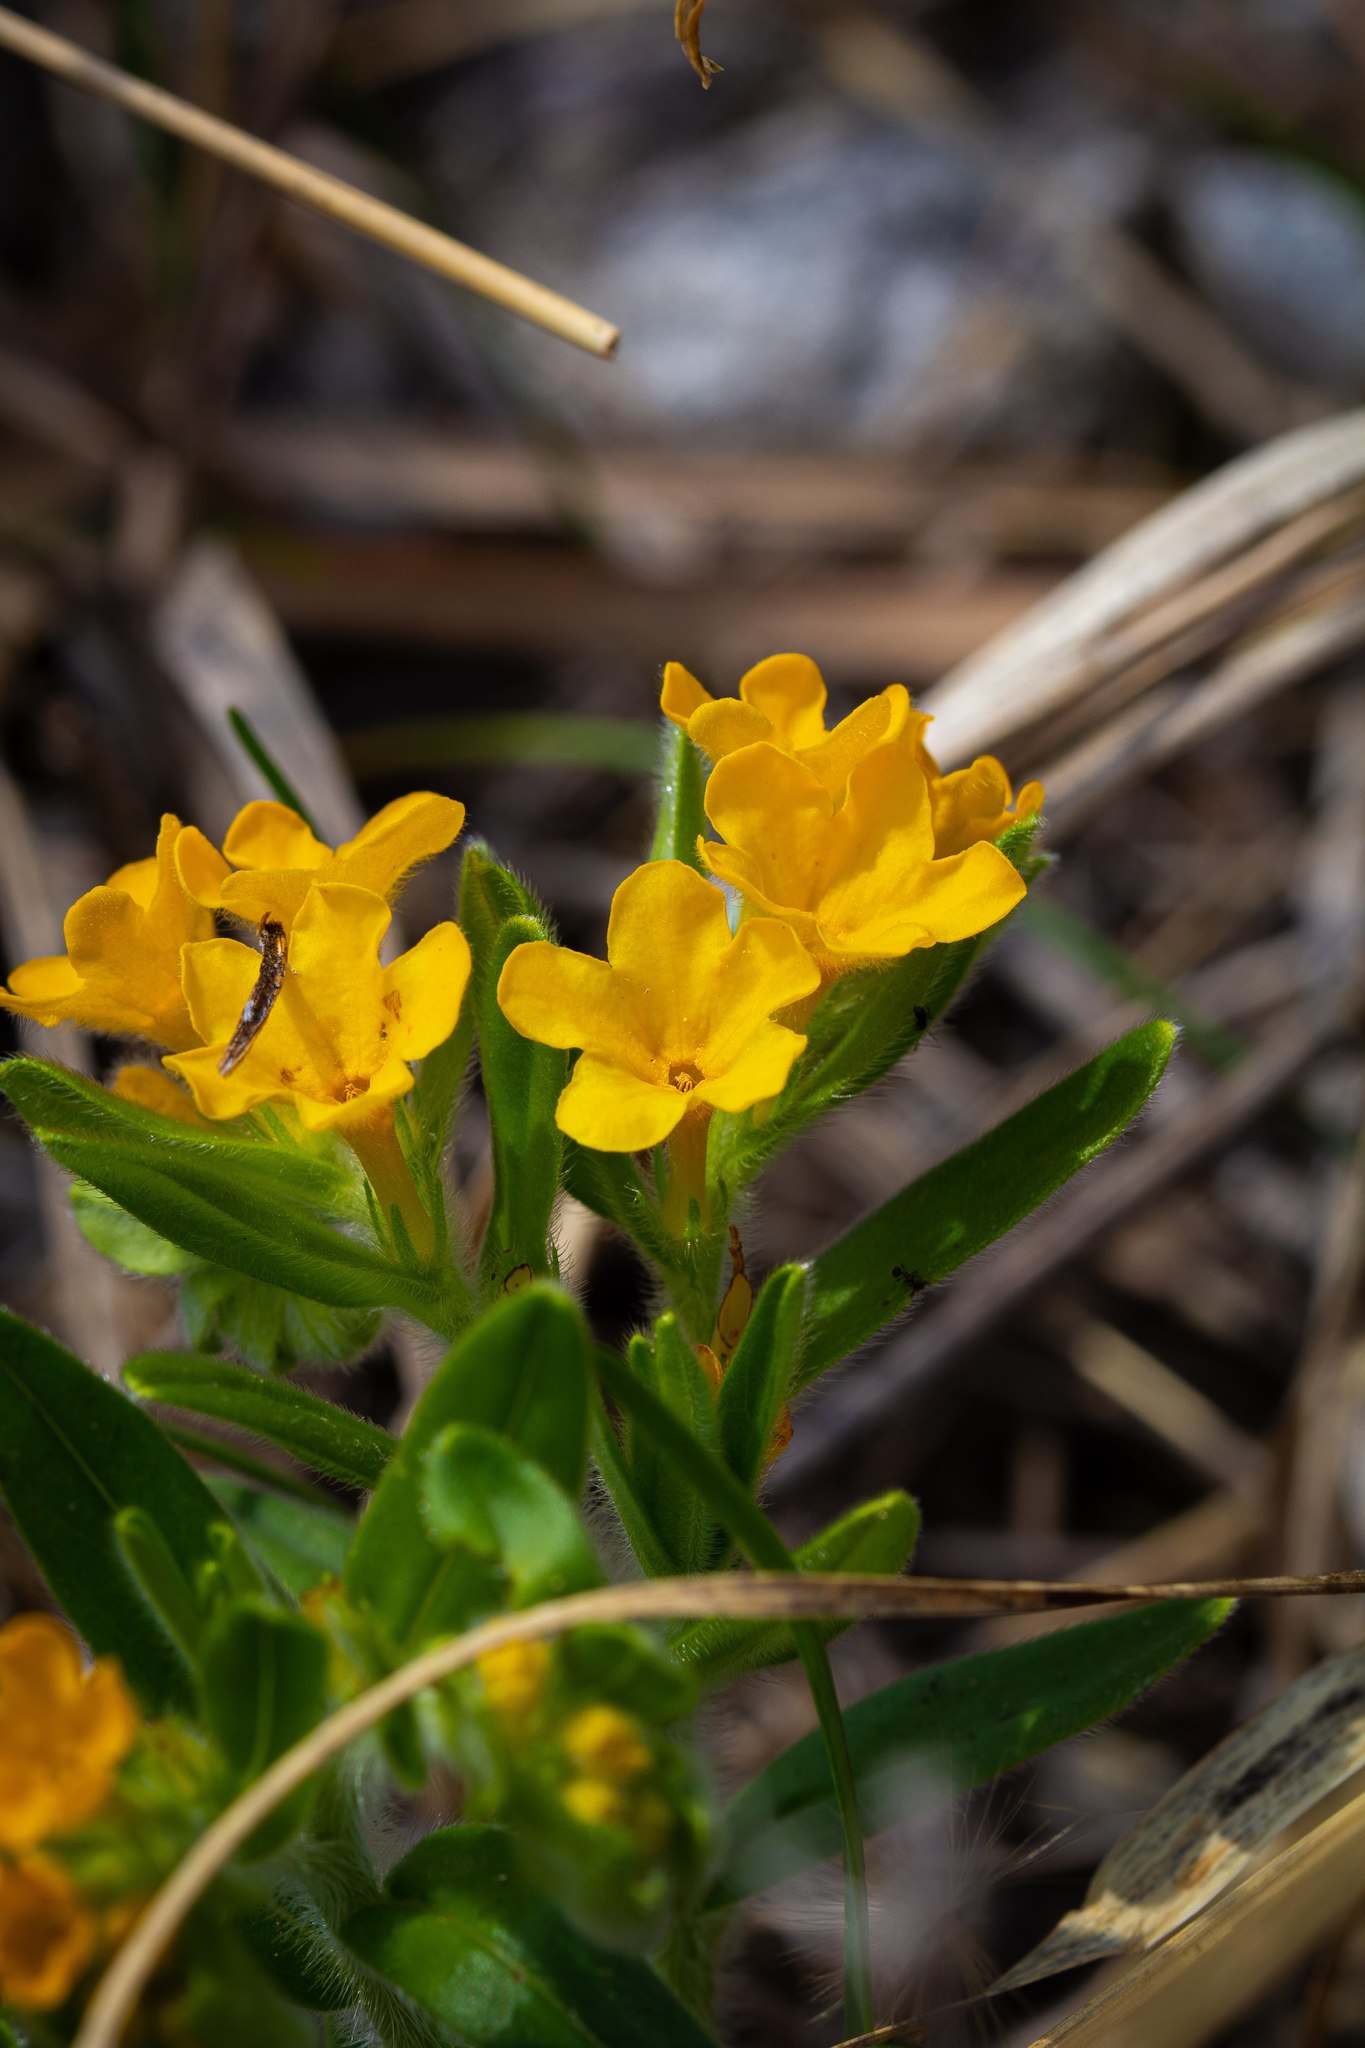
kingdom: Plantae
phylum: Tracheophyta
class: Magnoliopsida
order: Boraginales
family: Boraginaceae
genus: Lithospermum
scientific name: Lithospermum canescens
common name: Hoary puccoon
